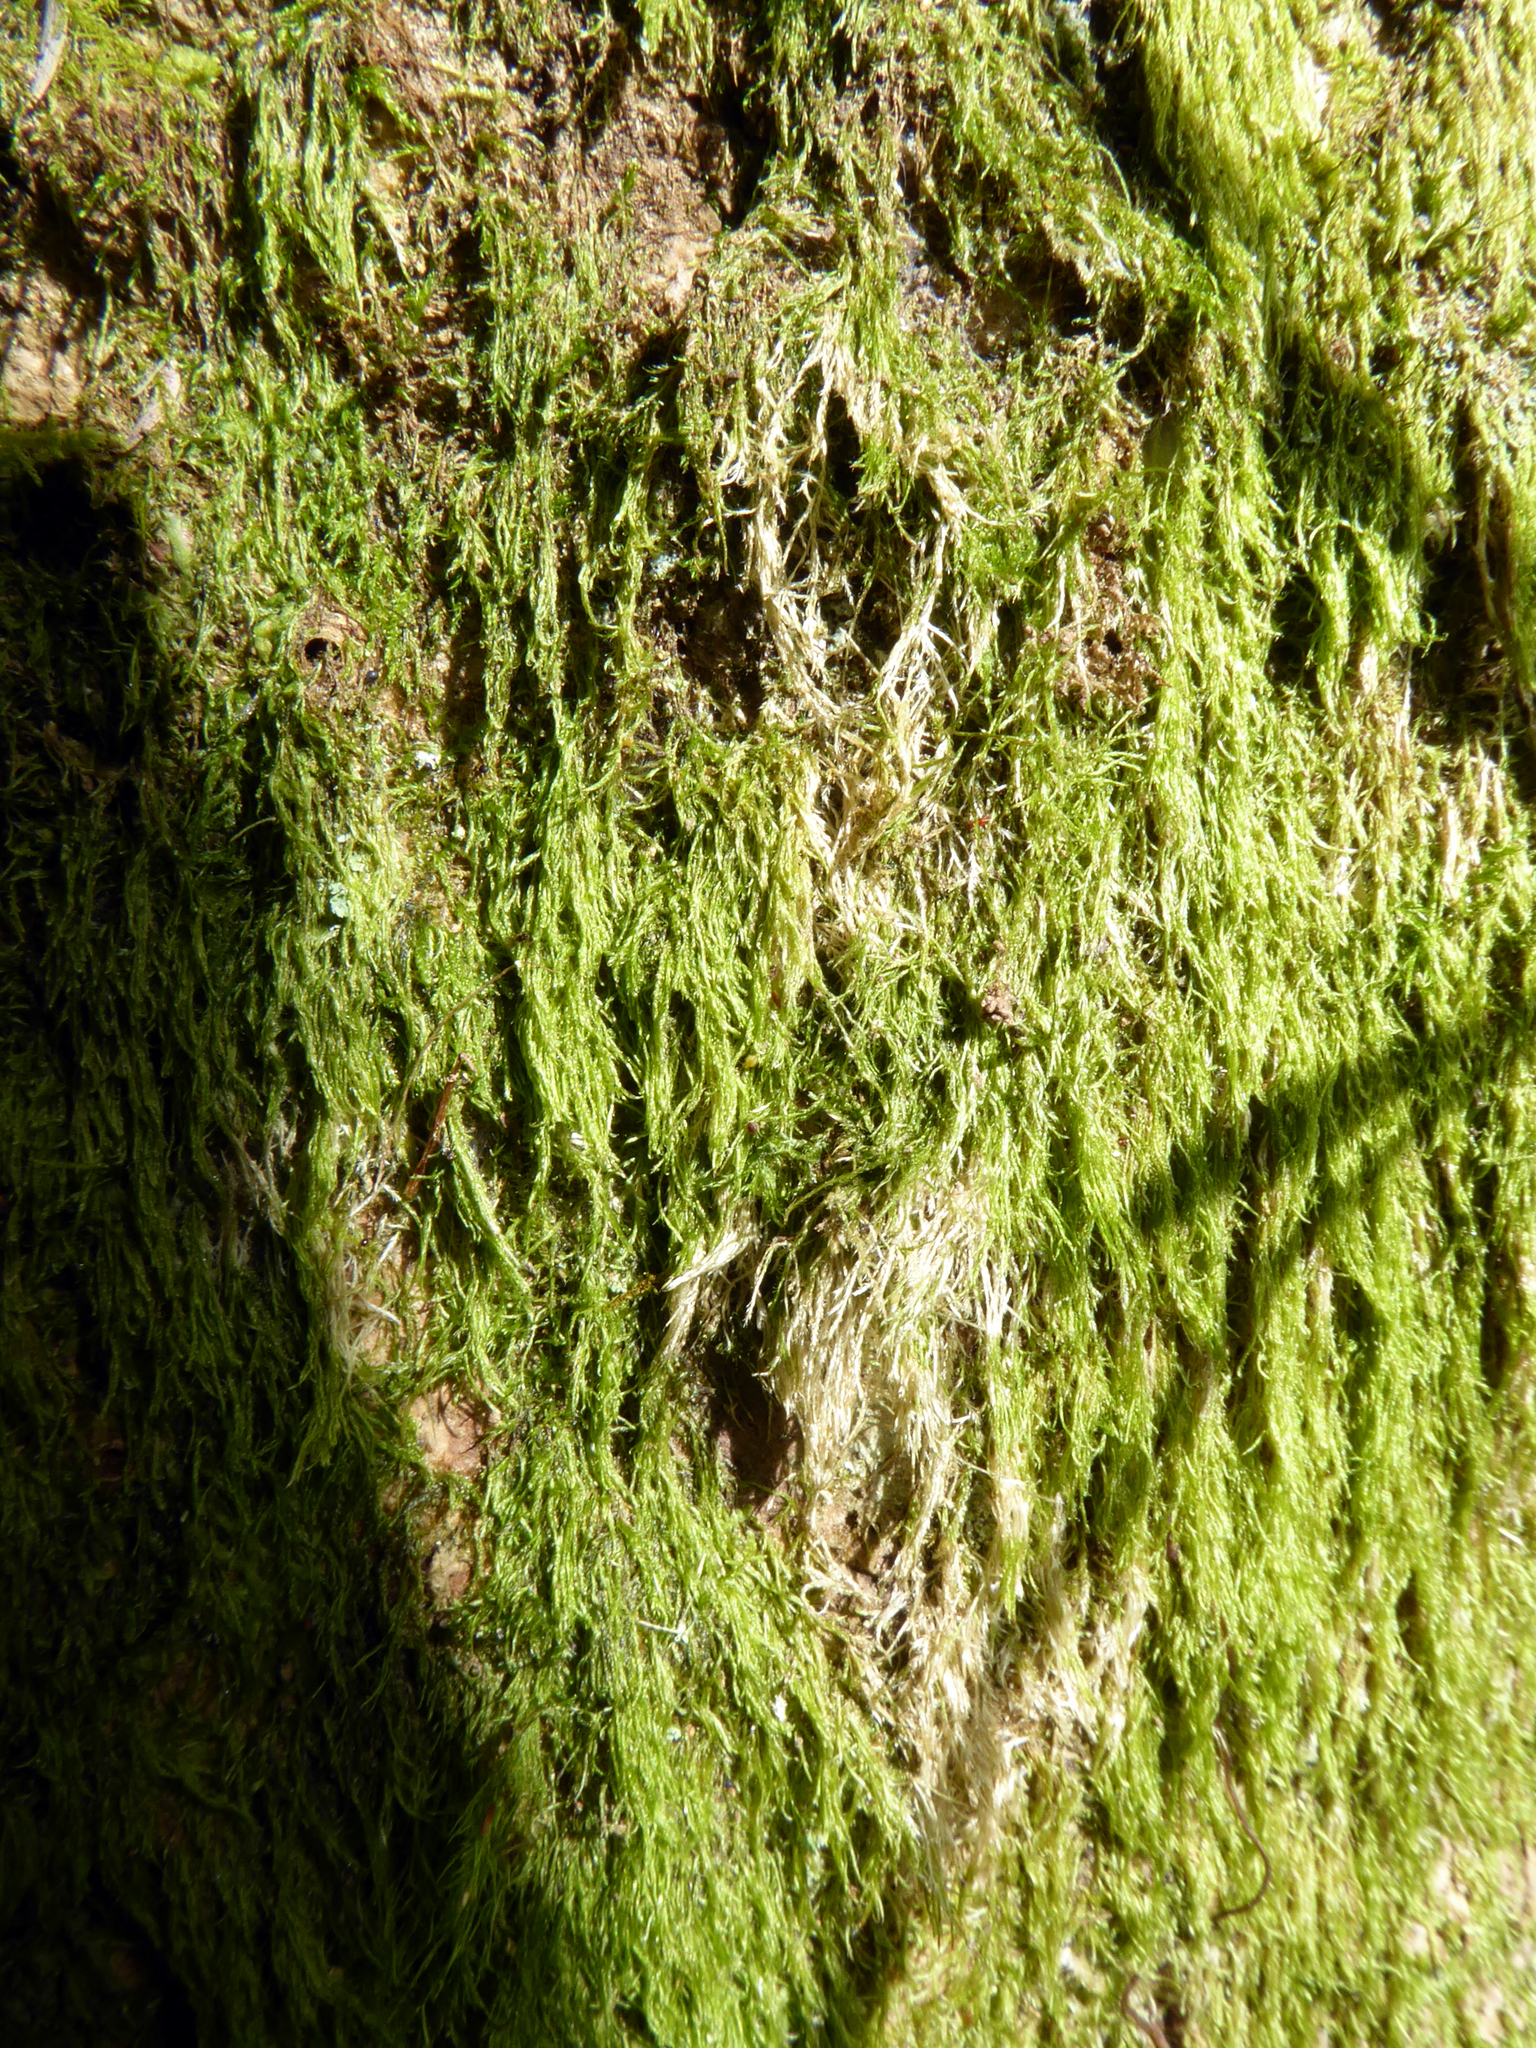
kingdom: Plantae
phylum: Bryophyta
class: Bryopsida
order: Hypnales
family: Hypnaceae
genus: Hypnum
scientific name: Hypnum cupressiforme
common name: Cypress-leaved plait-moss
